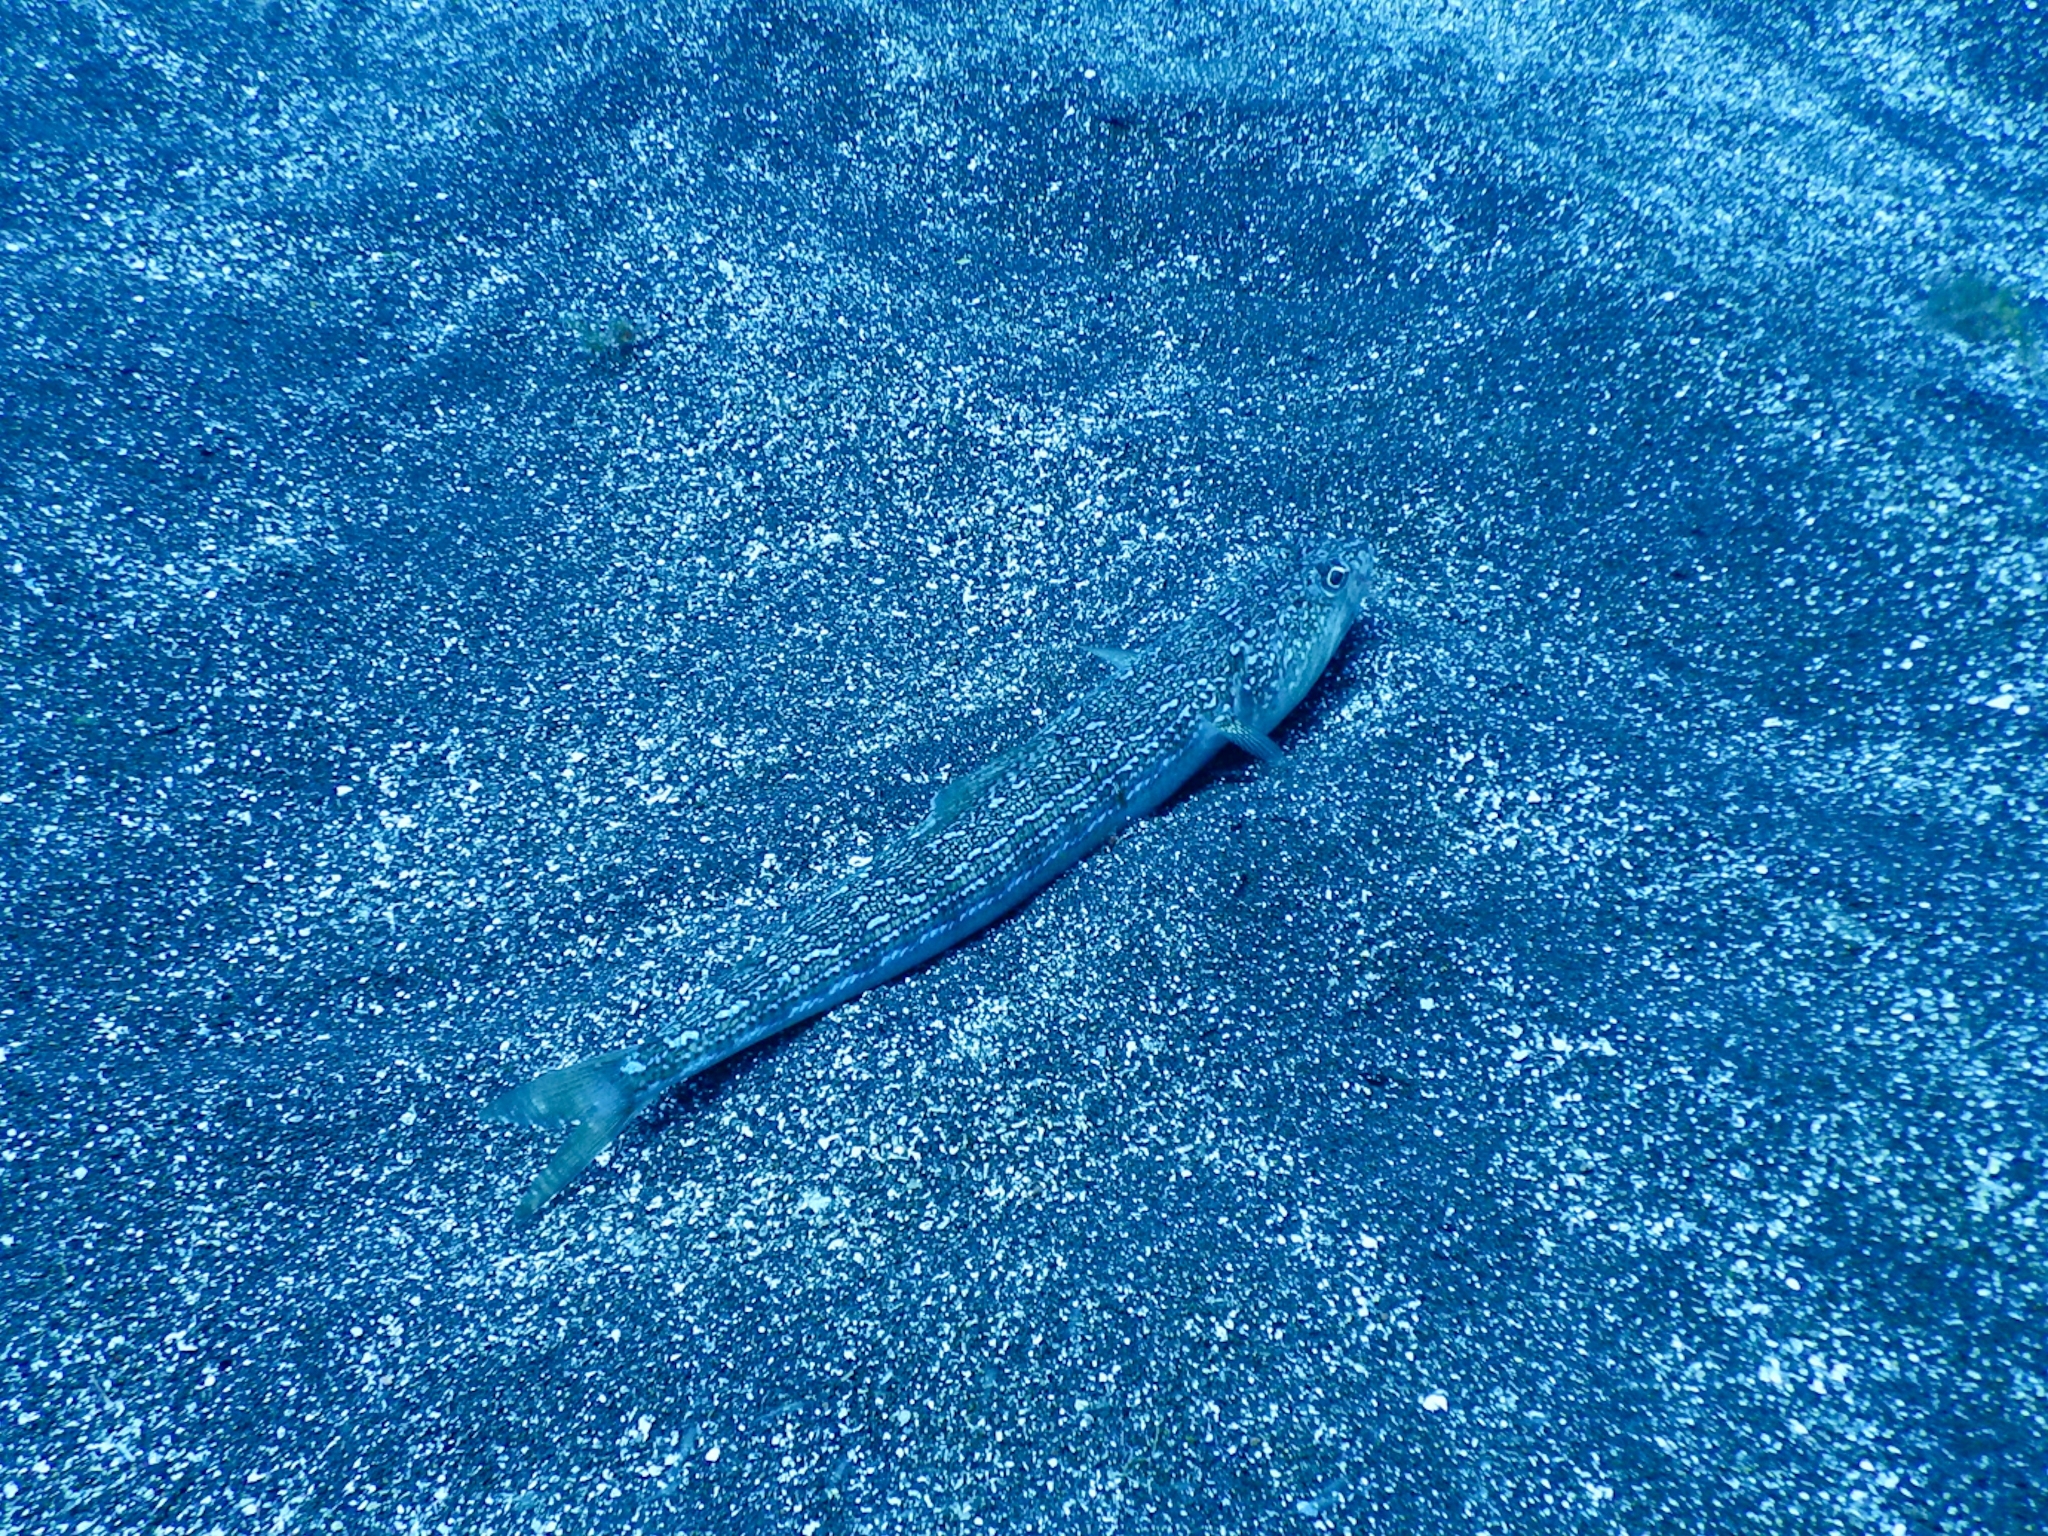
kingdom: Animalia
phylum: Chordata
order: Aulopiformes
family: Synodontidae
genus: Synodus
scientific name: Synodus saurus
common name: Atlantic lizardfish
